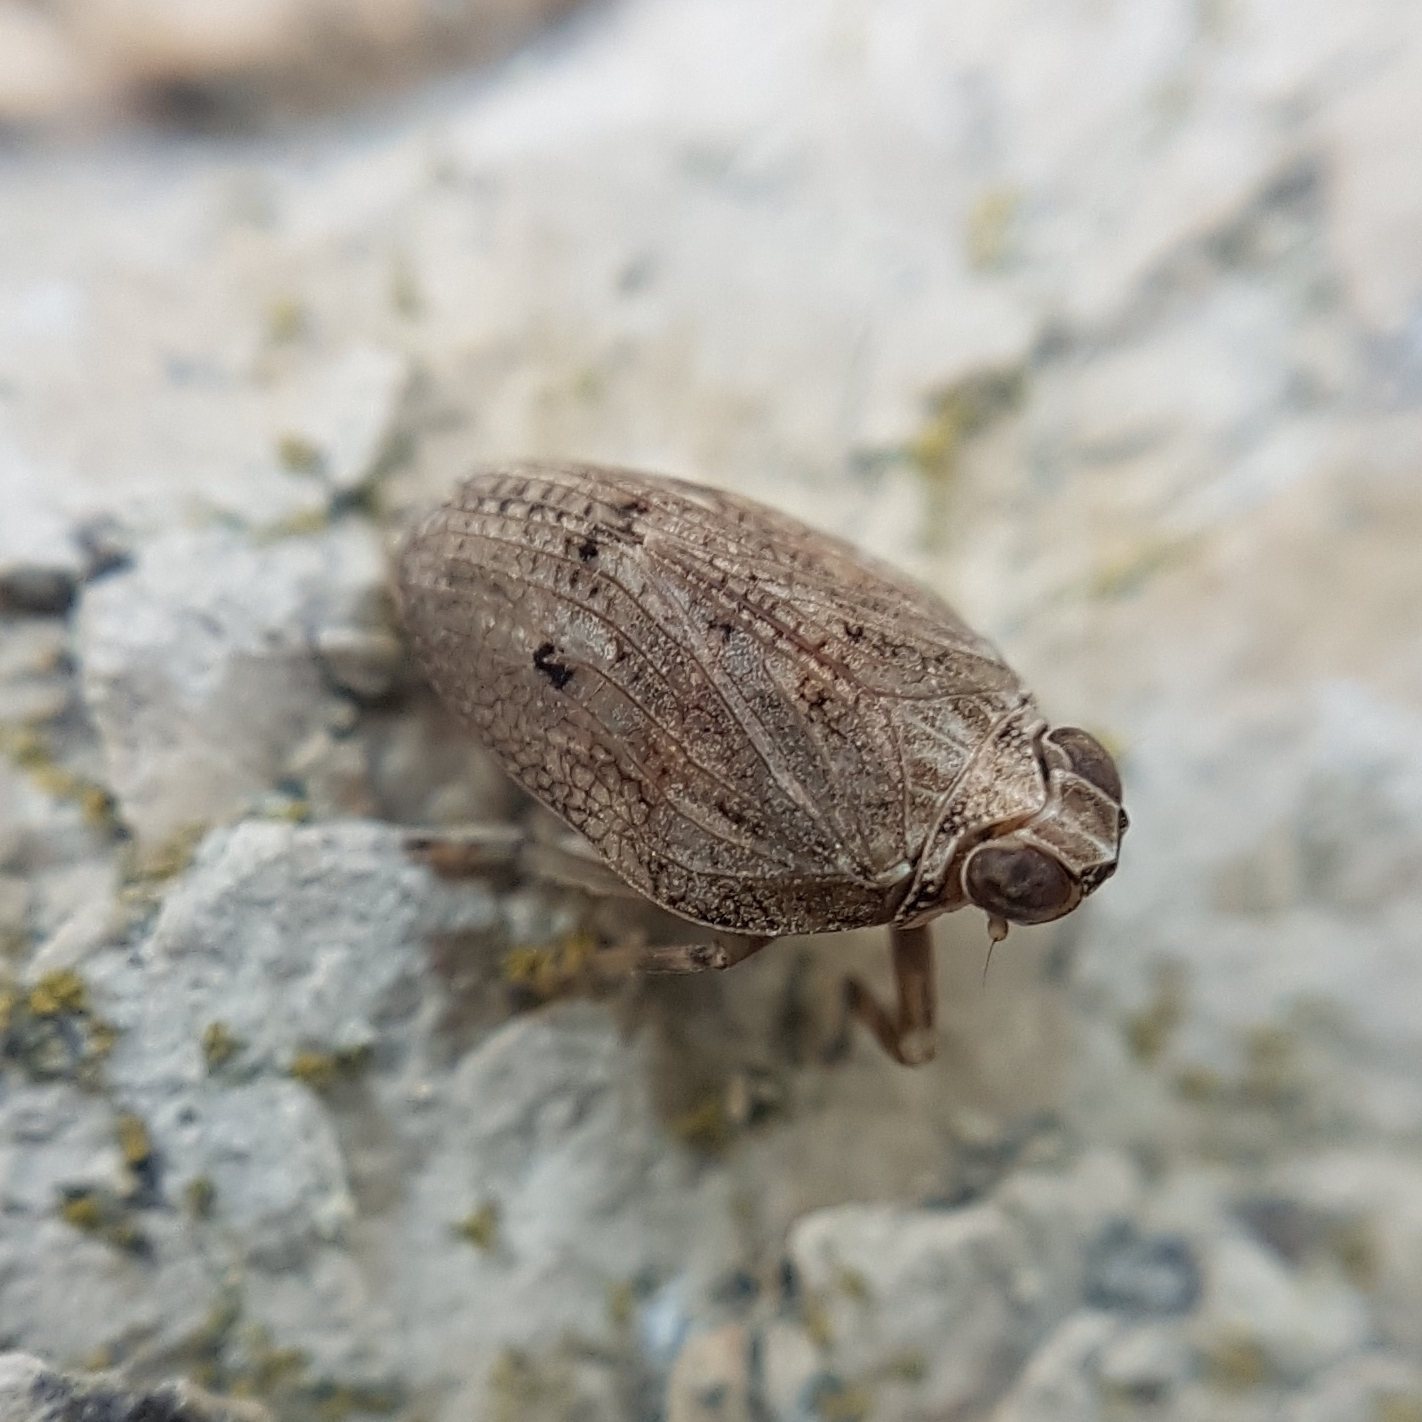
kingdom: Animalia
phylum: Arthropoda
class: Insecta
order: Hemiptera
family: Issidae
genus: Issus
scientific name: Issus coleoptratus
